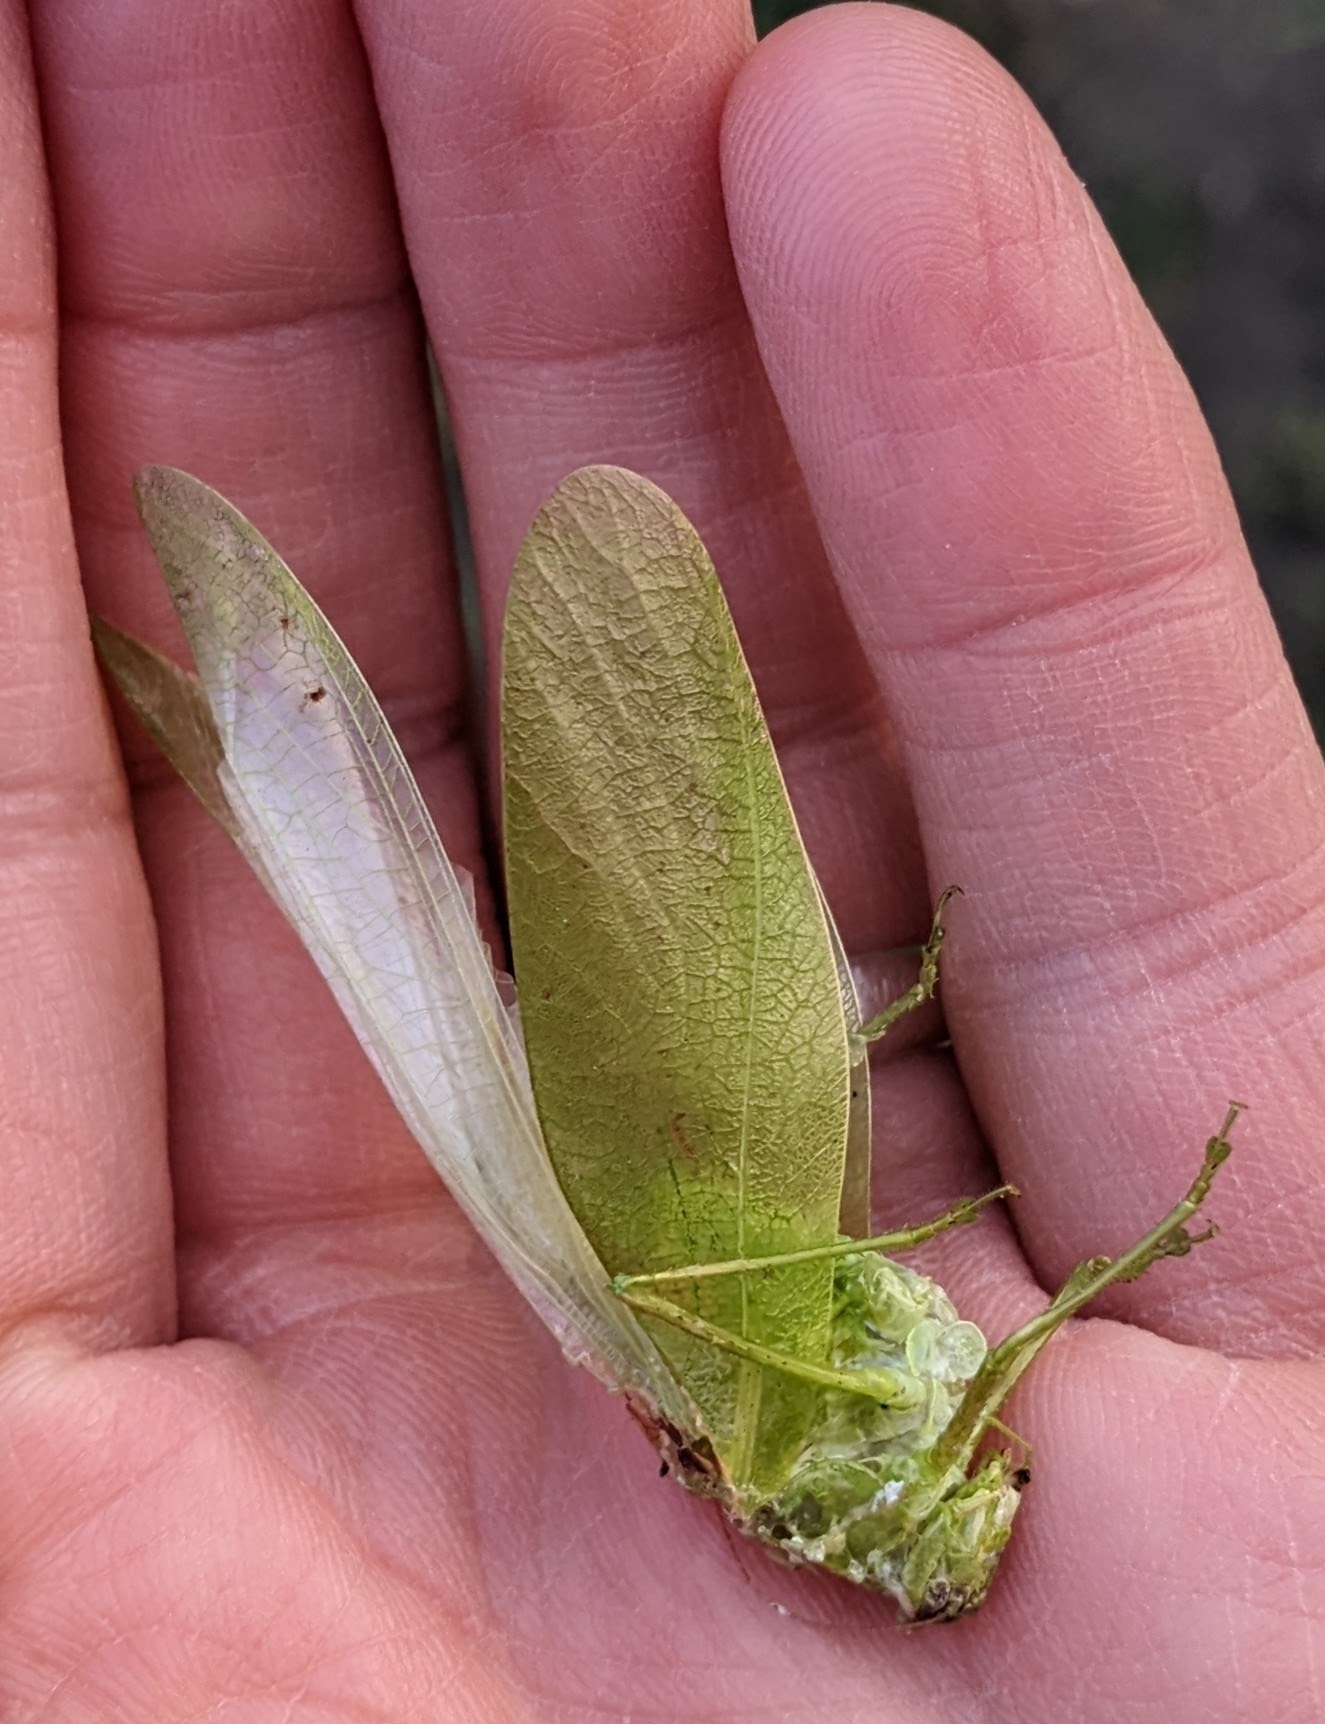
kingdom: Animalia
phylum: Arthropoda
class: Insecta
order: Orthoptera
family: Tettigoniidae
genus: Scudderia
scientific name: Scudderia pistillata
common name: Broad-winged bush-katydid
